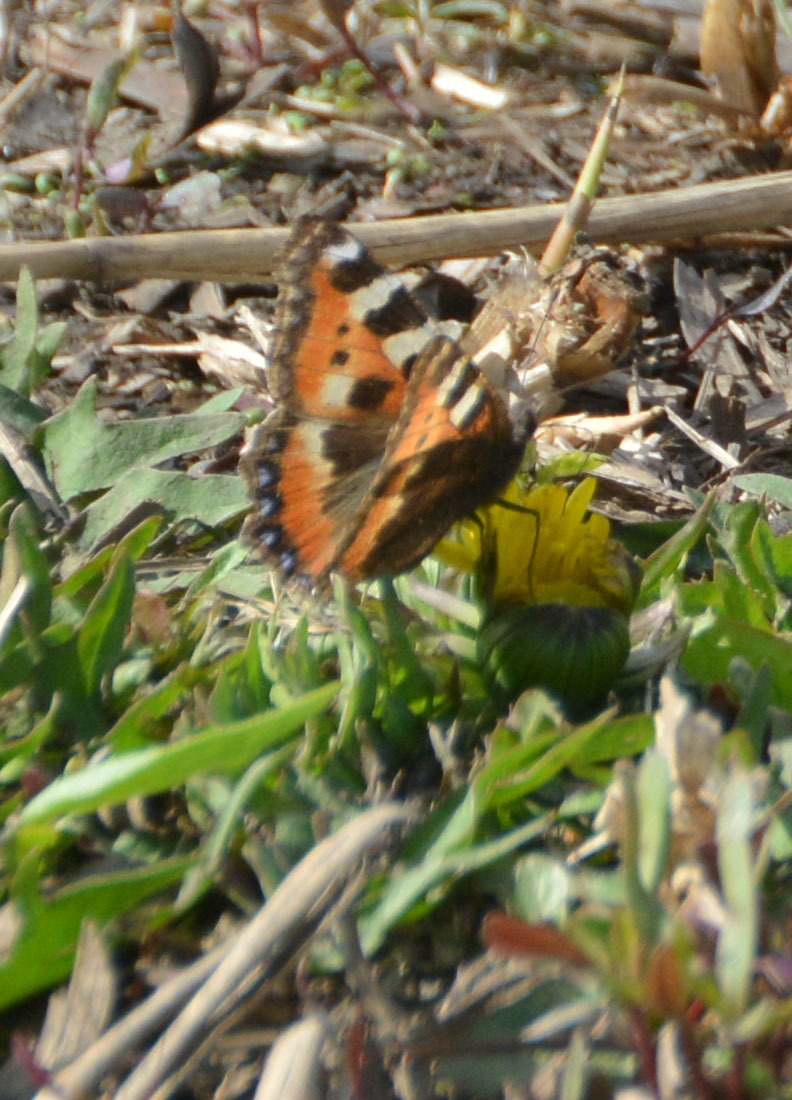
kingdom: Animalia
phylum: Arthropoda
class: Insecta
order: Lepidoptera
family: Nymphalidae
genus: Aglais
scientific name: Aglais urticae
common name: Small tortoiseshell
